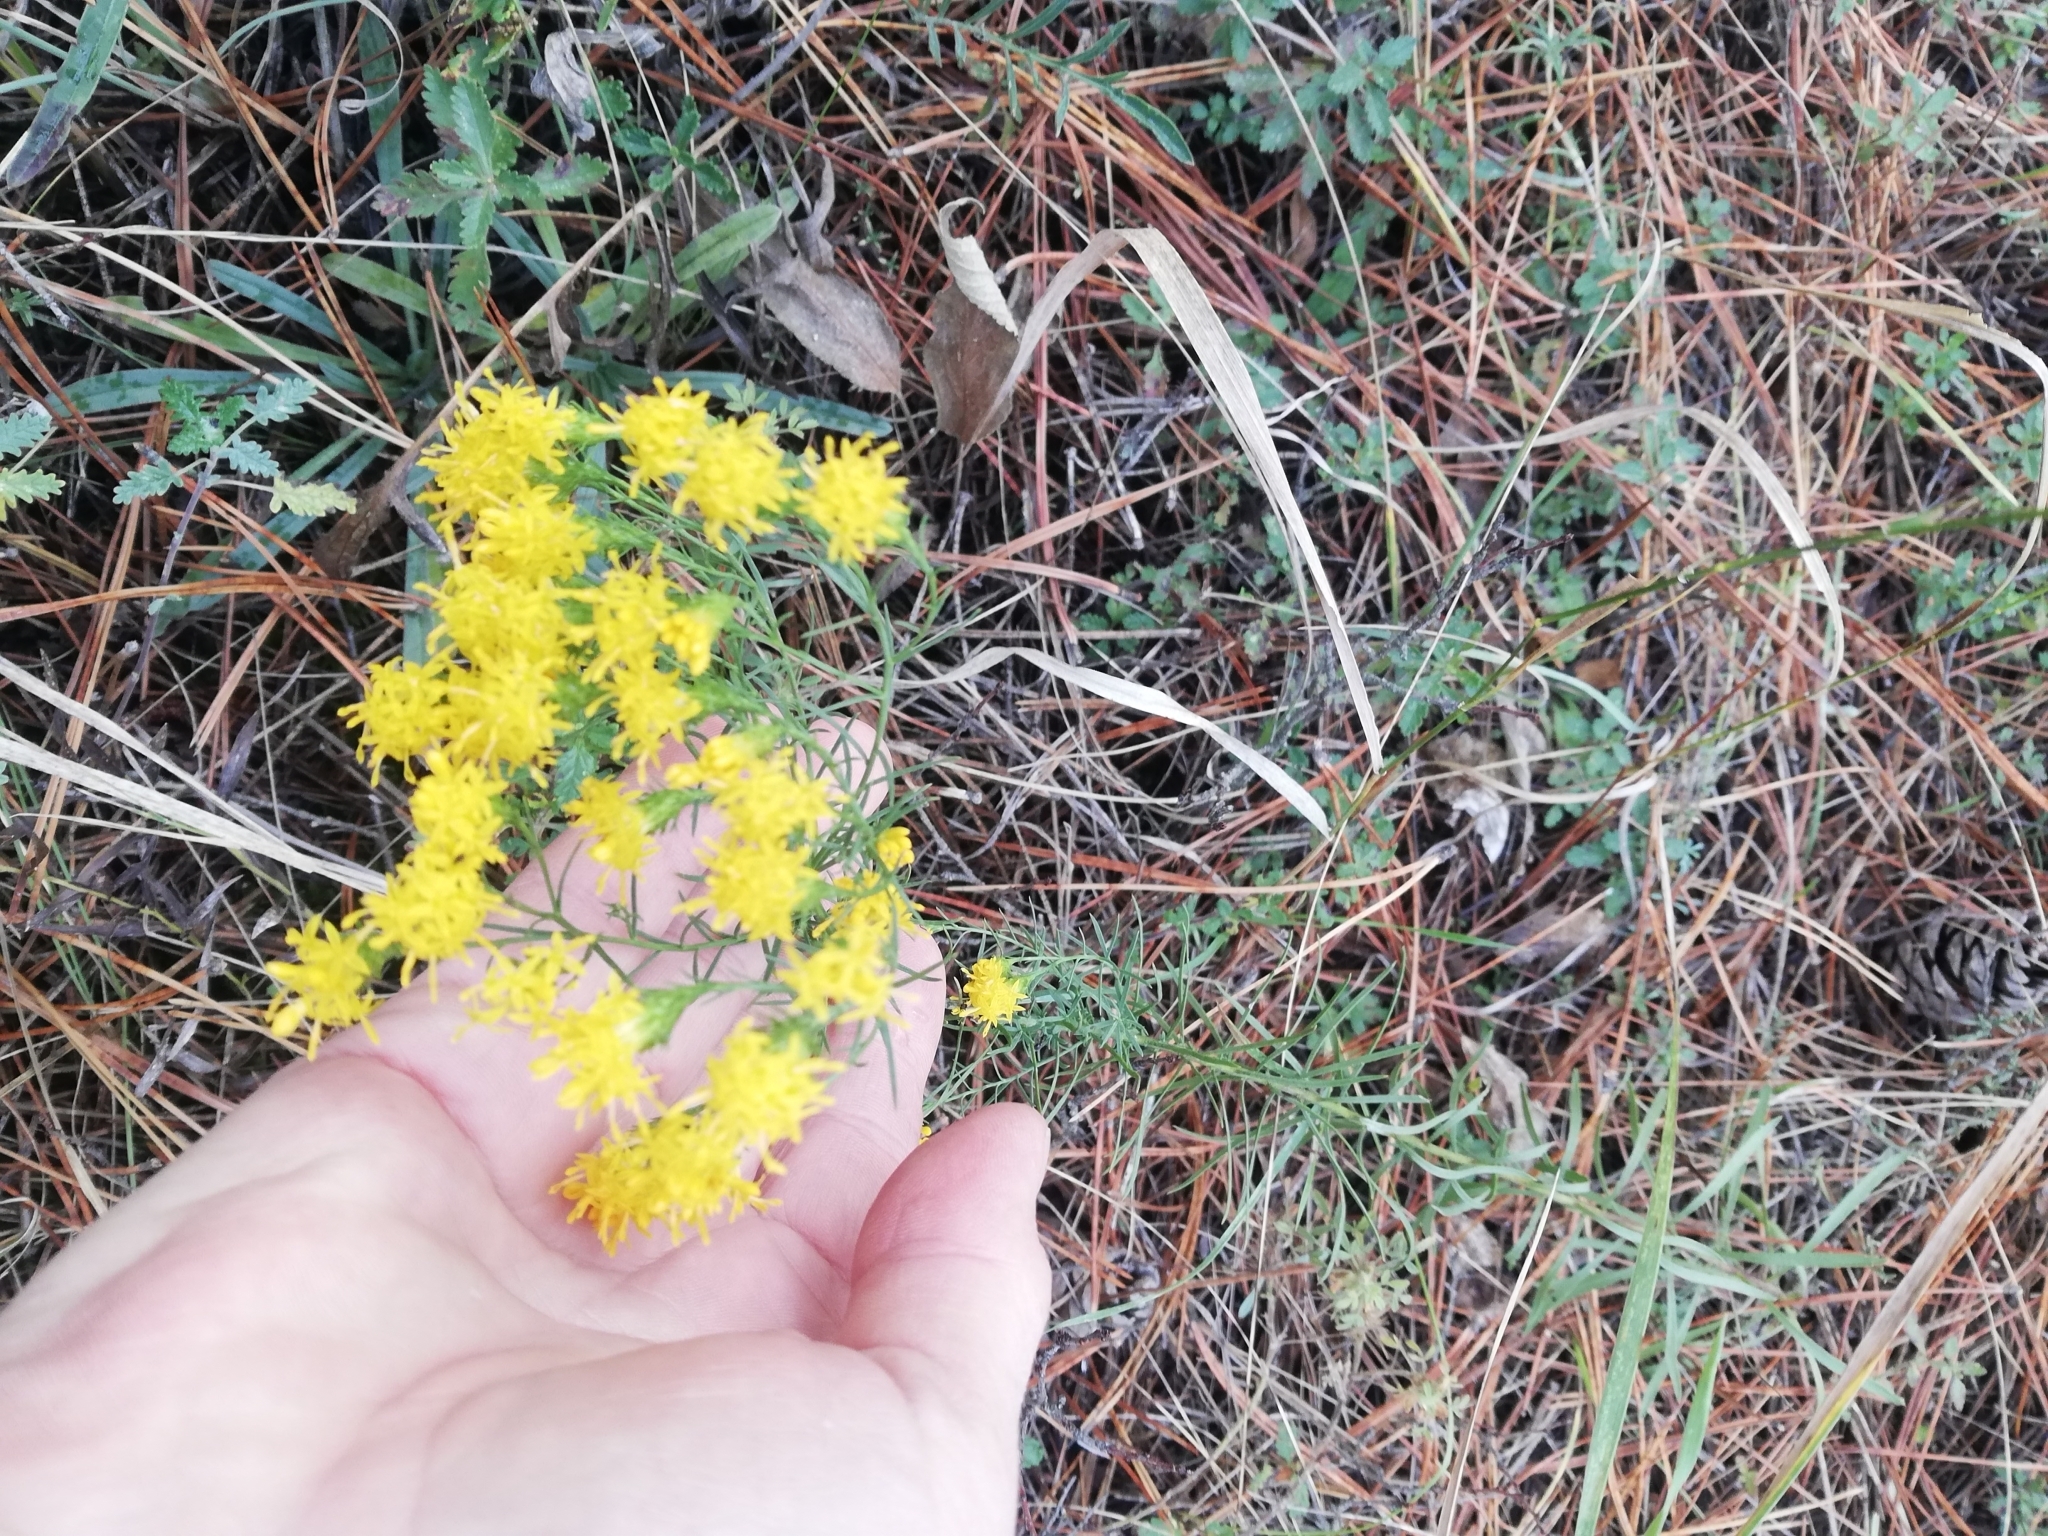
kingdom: Plantae
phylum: Tracheophyta
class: Magnoliopsida
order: Asterales
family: Asteraceae
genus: Galatella
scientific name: Galatella linosyris
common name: Goldilocks aster
